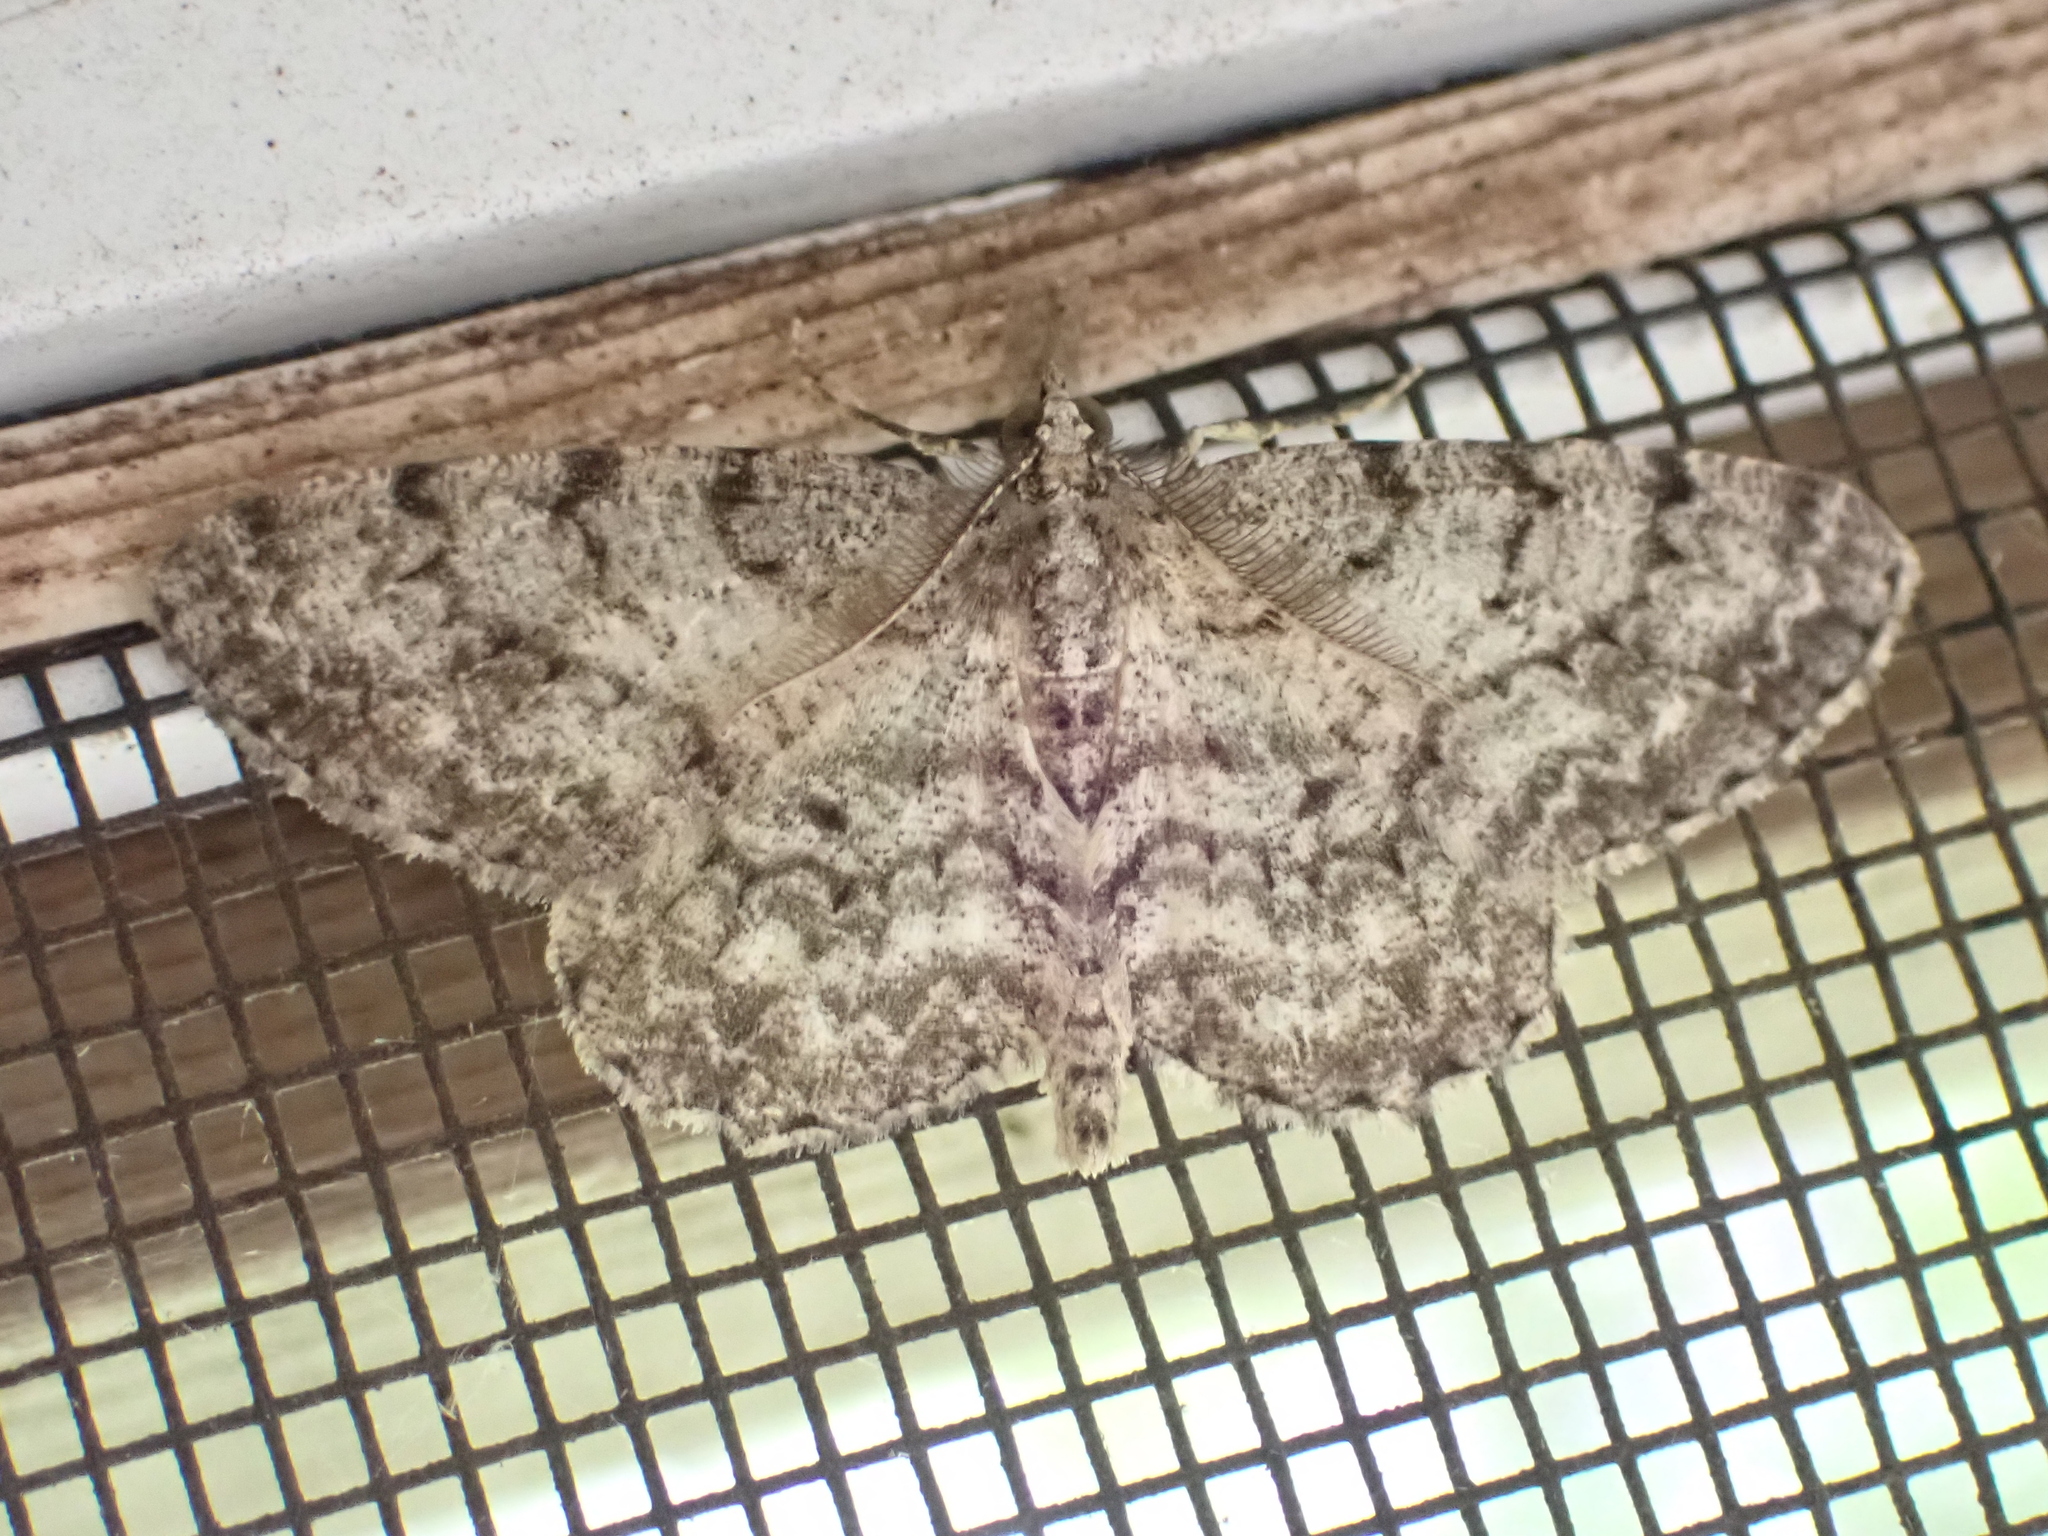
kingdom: Animalia
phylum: Arthropoda
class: Insecta
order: Lepidoptera
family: Geometridae
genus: Protoboarmia
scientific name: Protoboarmia porcelaria
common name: Porcelain gray
